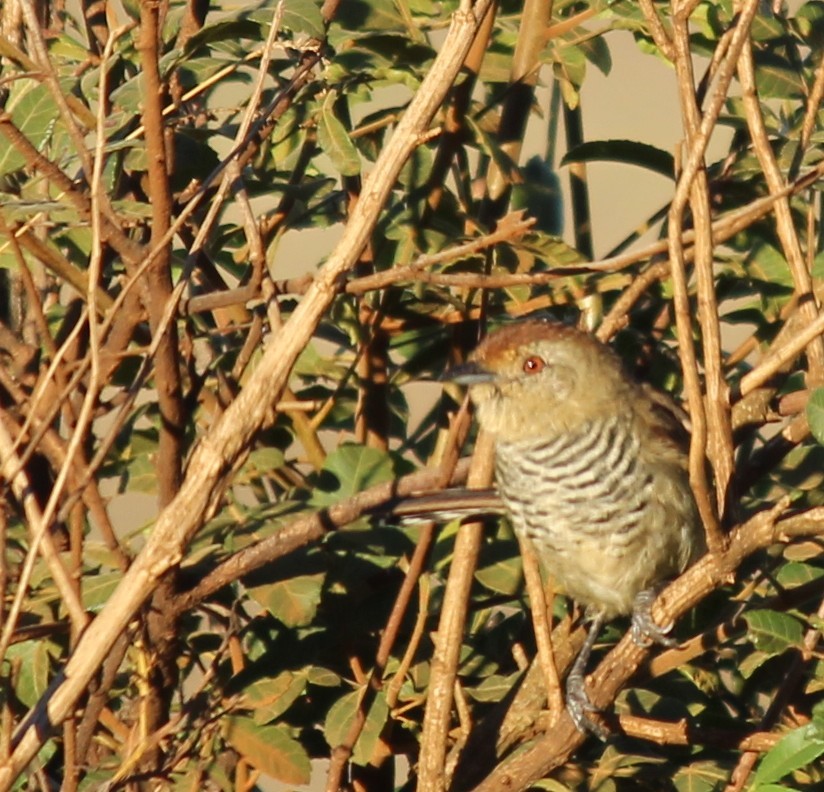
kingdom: Animalia
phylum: Chordata
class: Aves
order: Passeriformes
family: Thamnophilidae
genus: Thamnophilus
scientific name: Thamnophilus ruficapillus
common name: Rufous-capped antshrike
